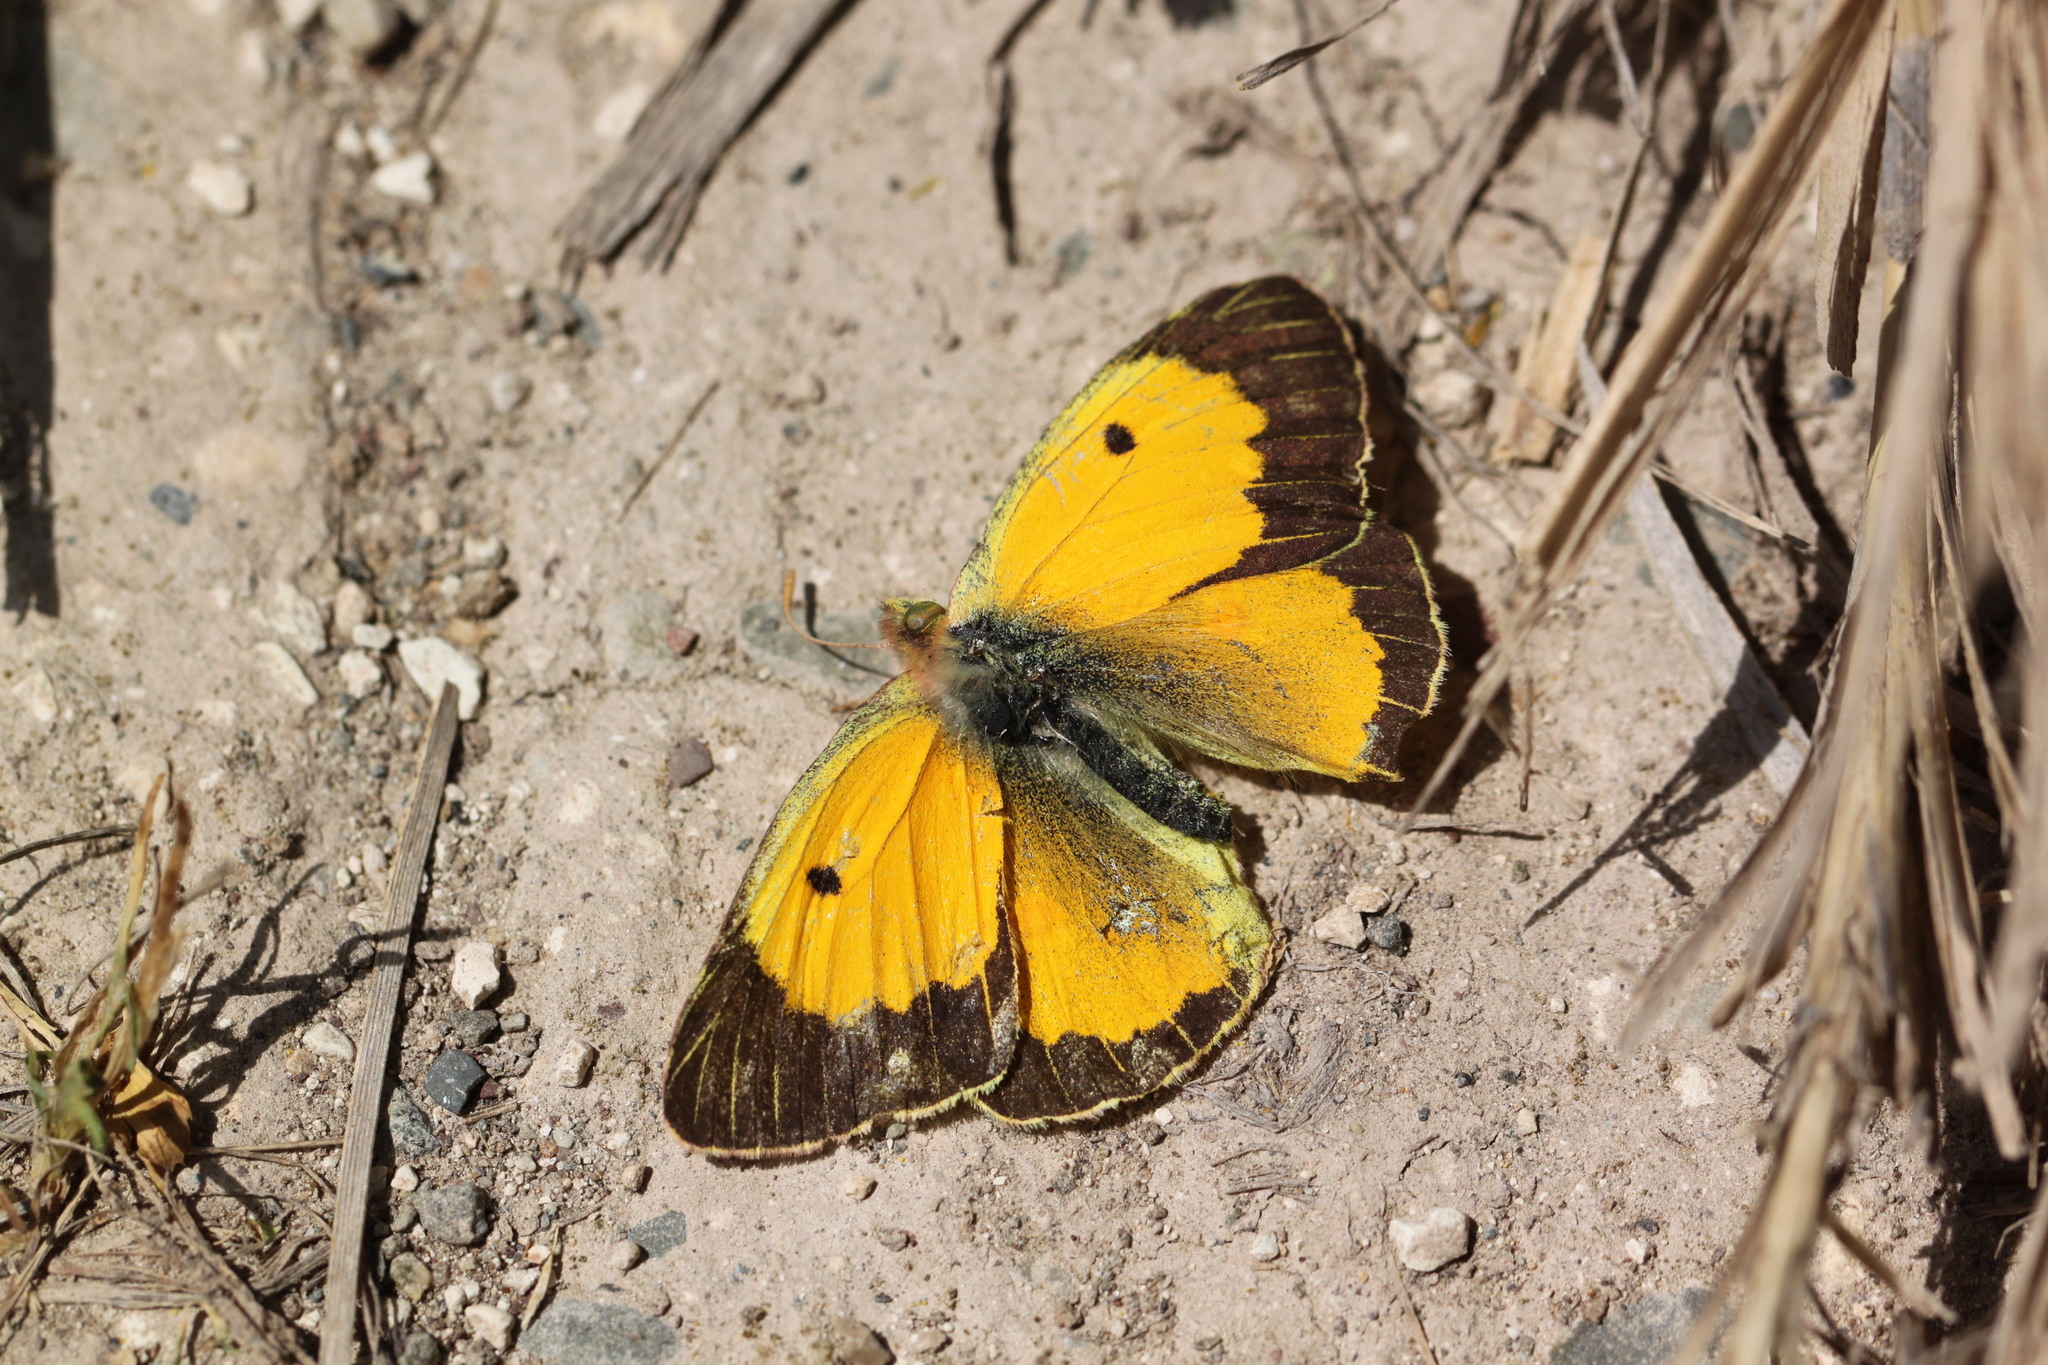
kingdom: Animalia
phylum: Arthropoda
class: Insecta
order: Lepidoptera
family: Pieridae
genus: Colias
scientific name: Colias croceus
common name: Clouded yellow
